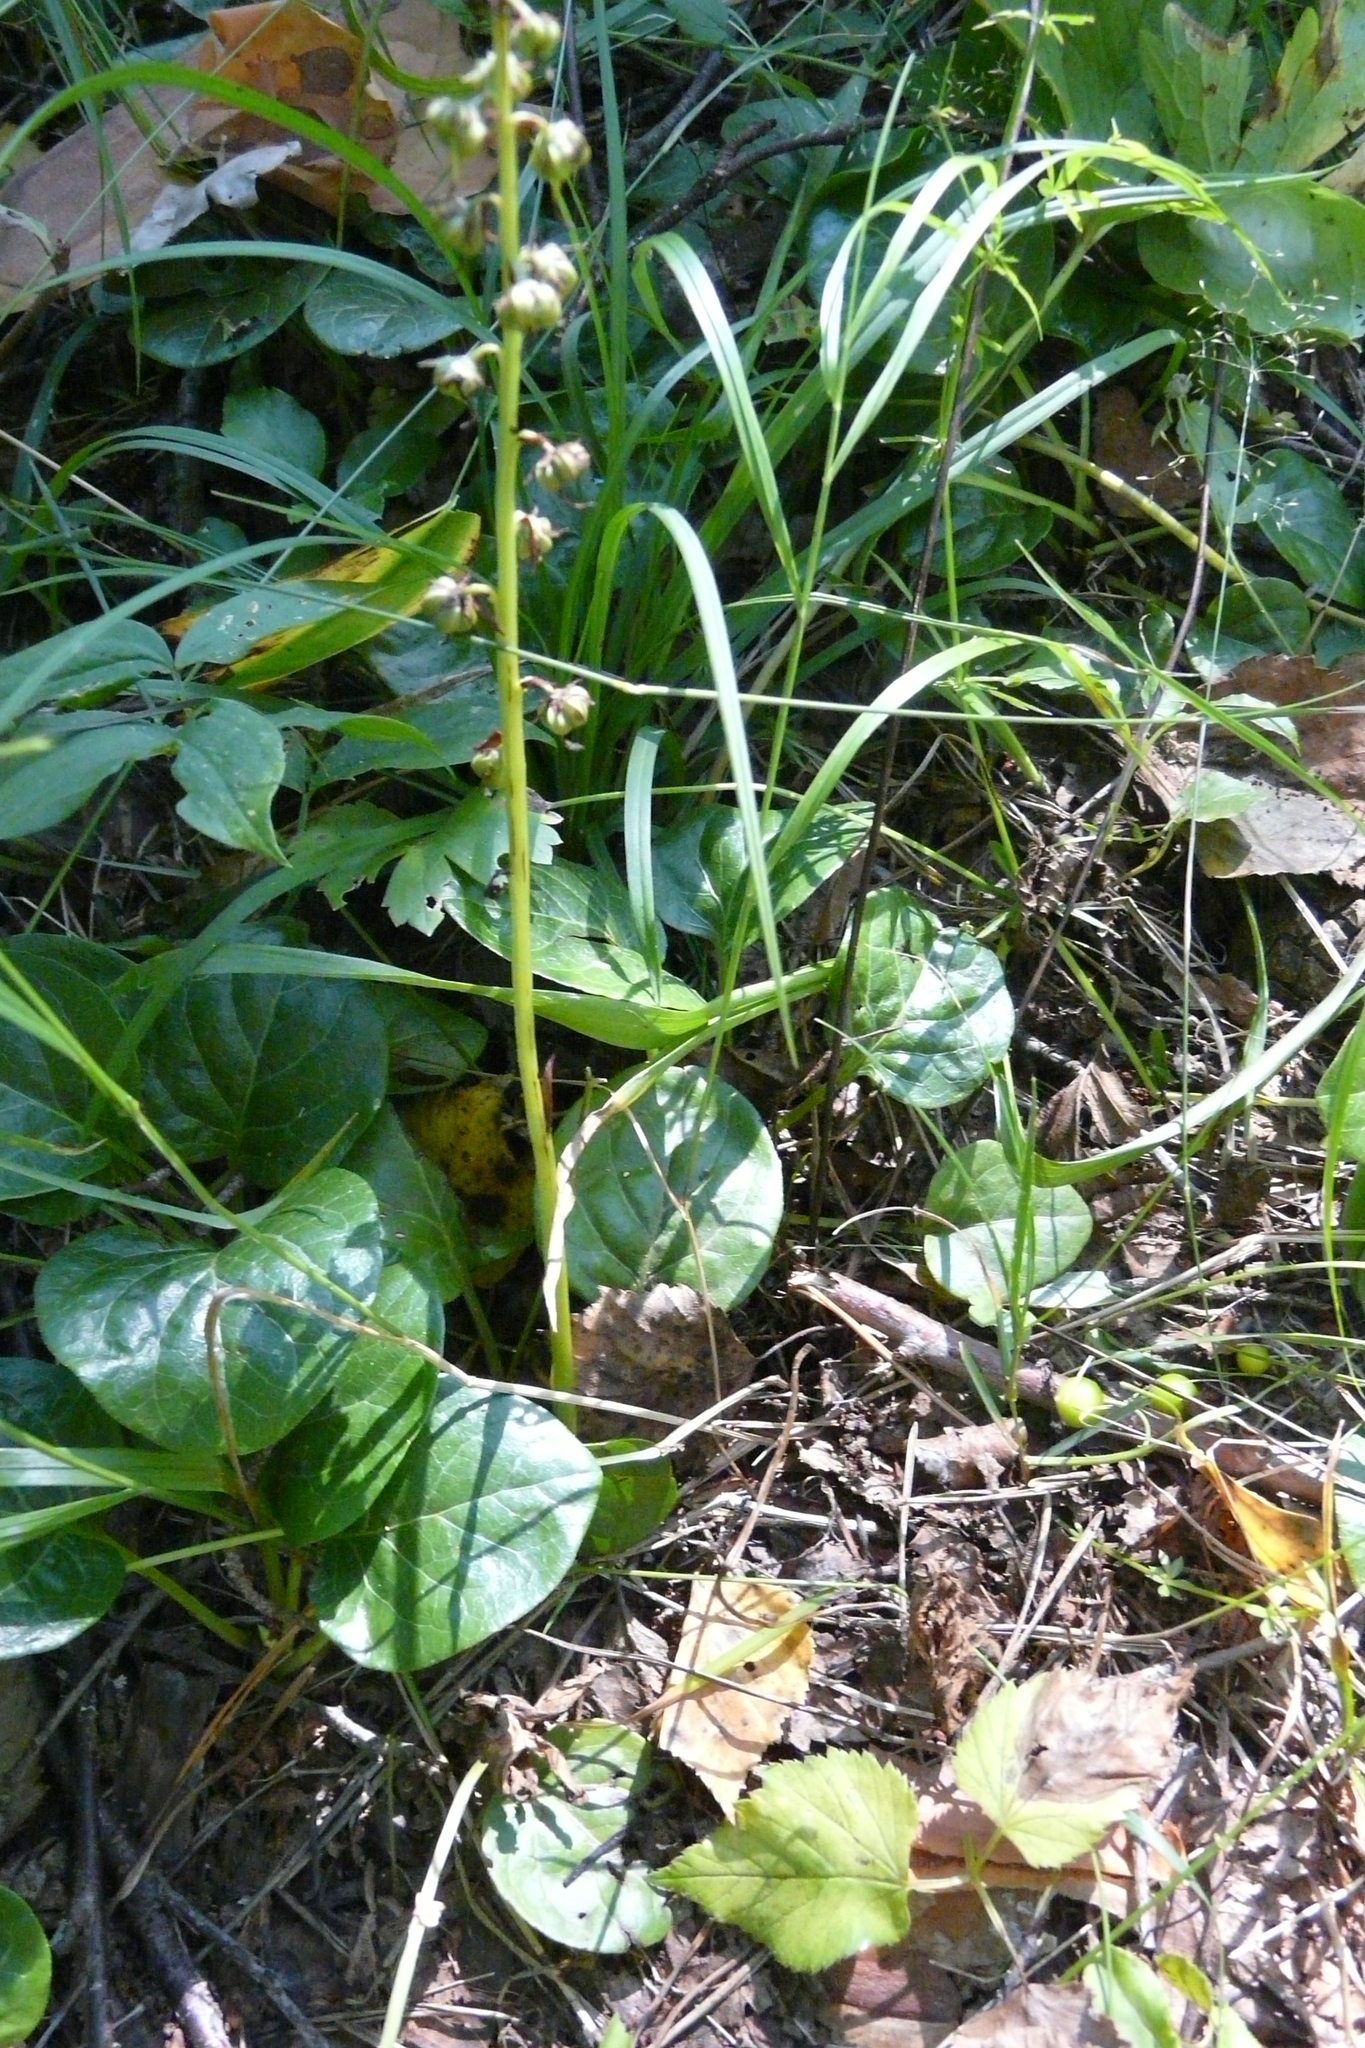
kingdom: Plantae
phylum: Tracheophyta
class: Magnoliopsida
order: Ericales
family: Ericaceae
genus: Pyrola
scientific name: Pyrola rotundifolia
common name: Round-leaved wintergreen
